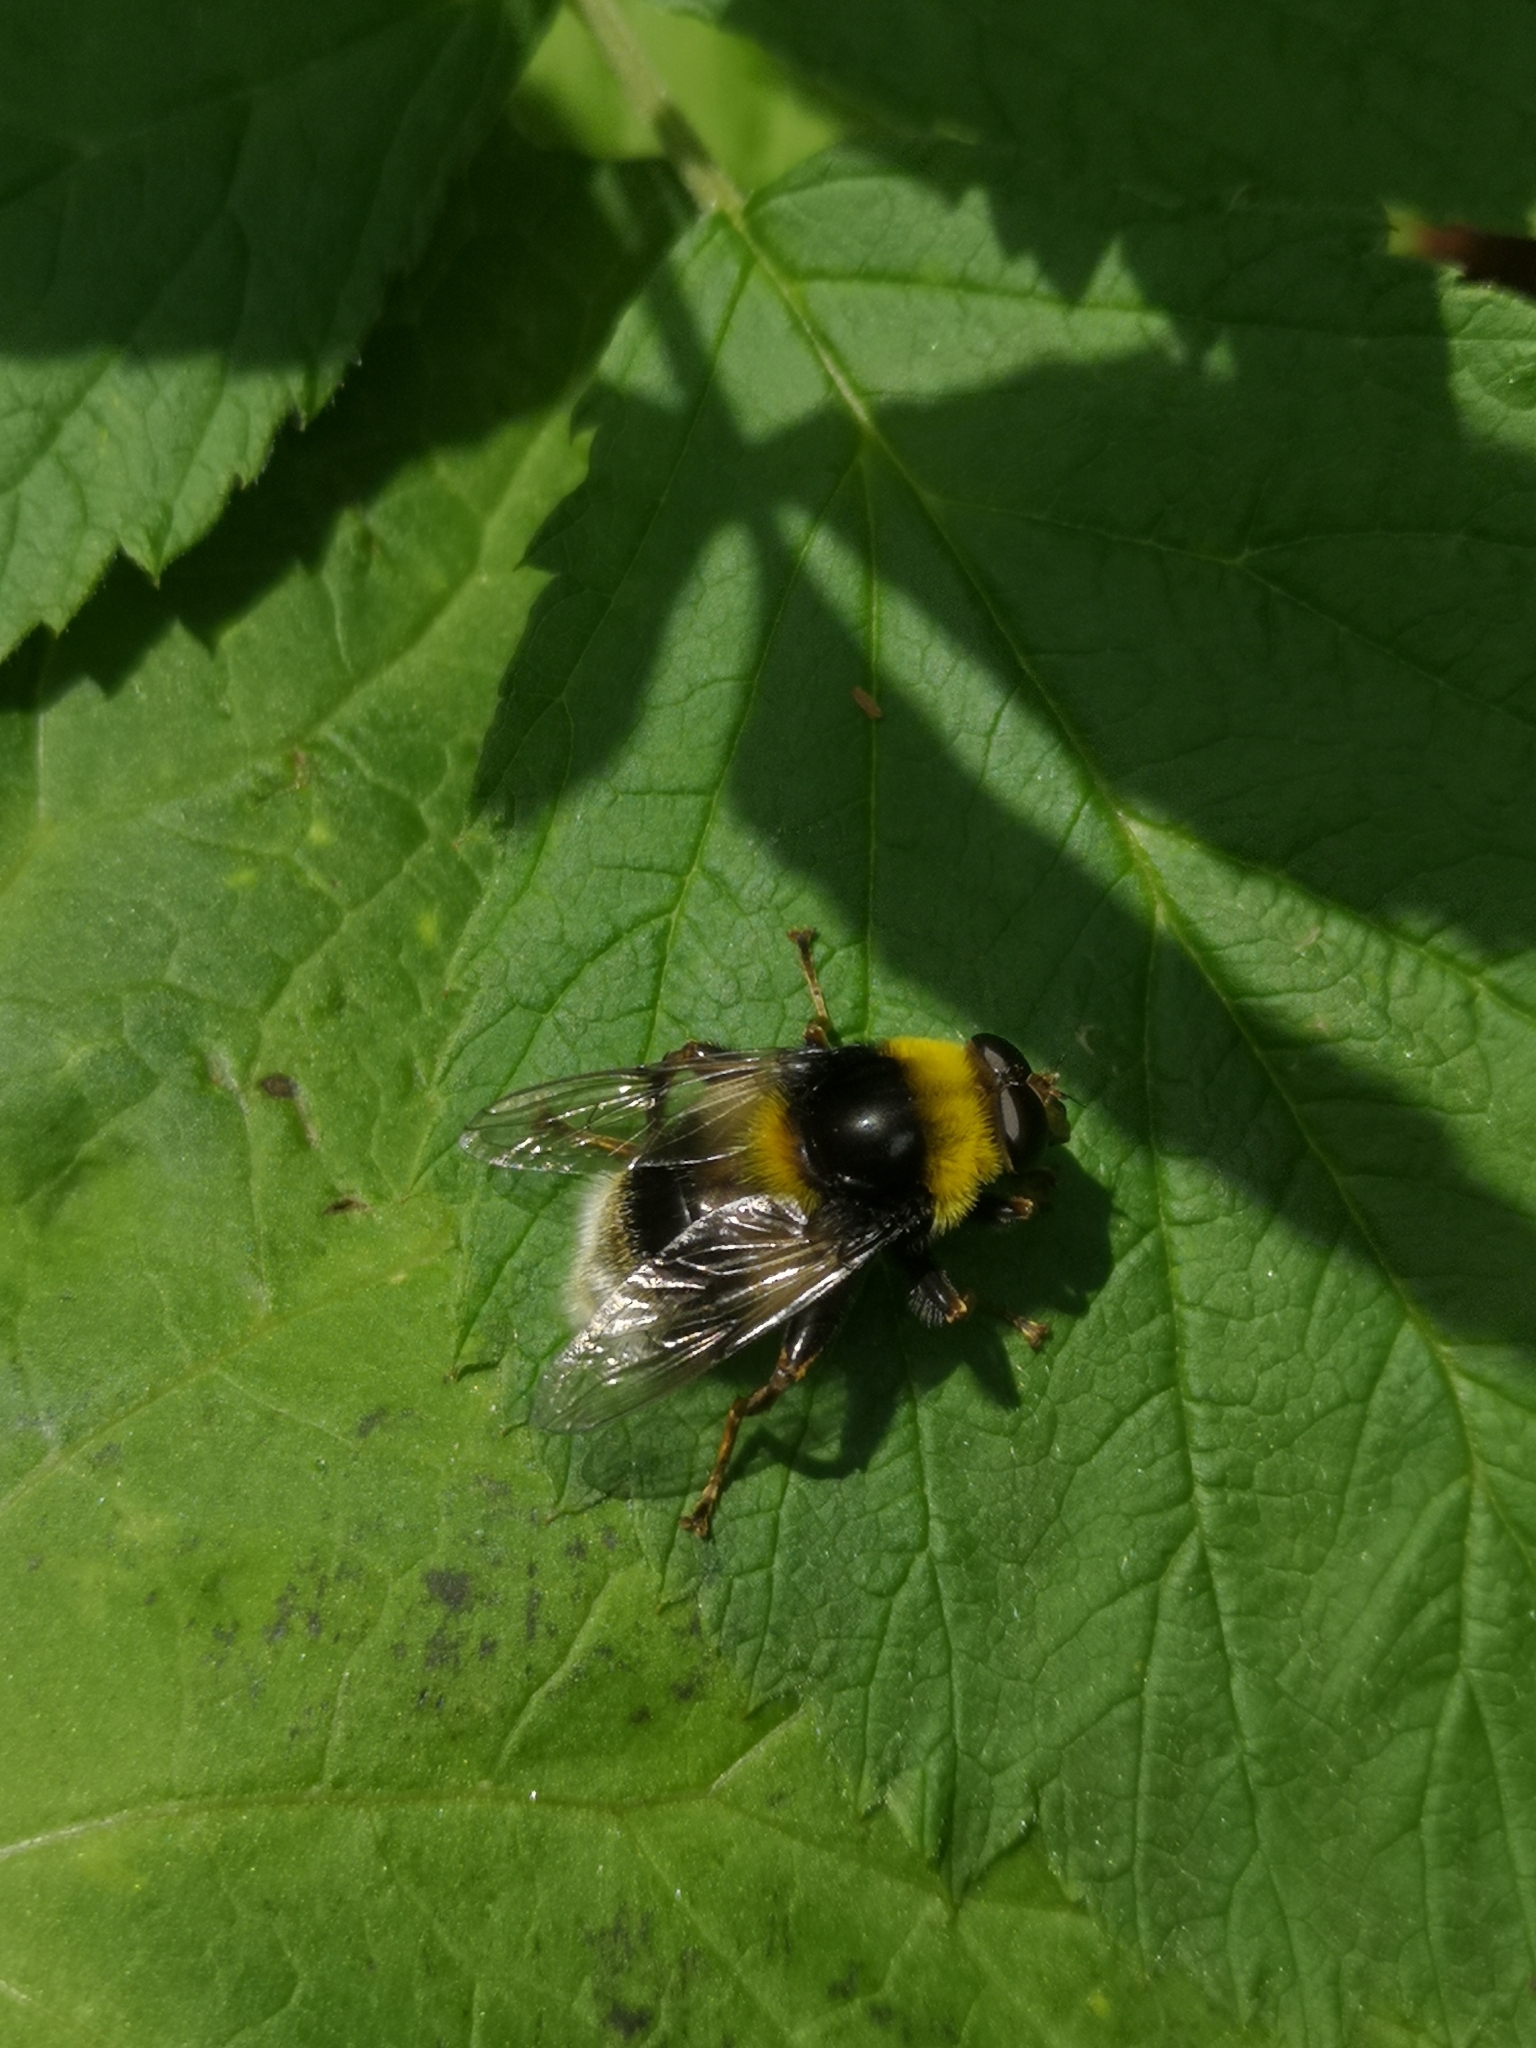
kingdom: Animalia
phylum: Arthropoda
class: Insecta
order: Diptera
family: Syrphidae
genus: Sericomyia
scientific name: Sericomyia bombiformis
